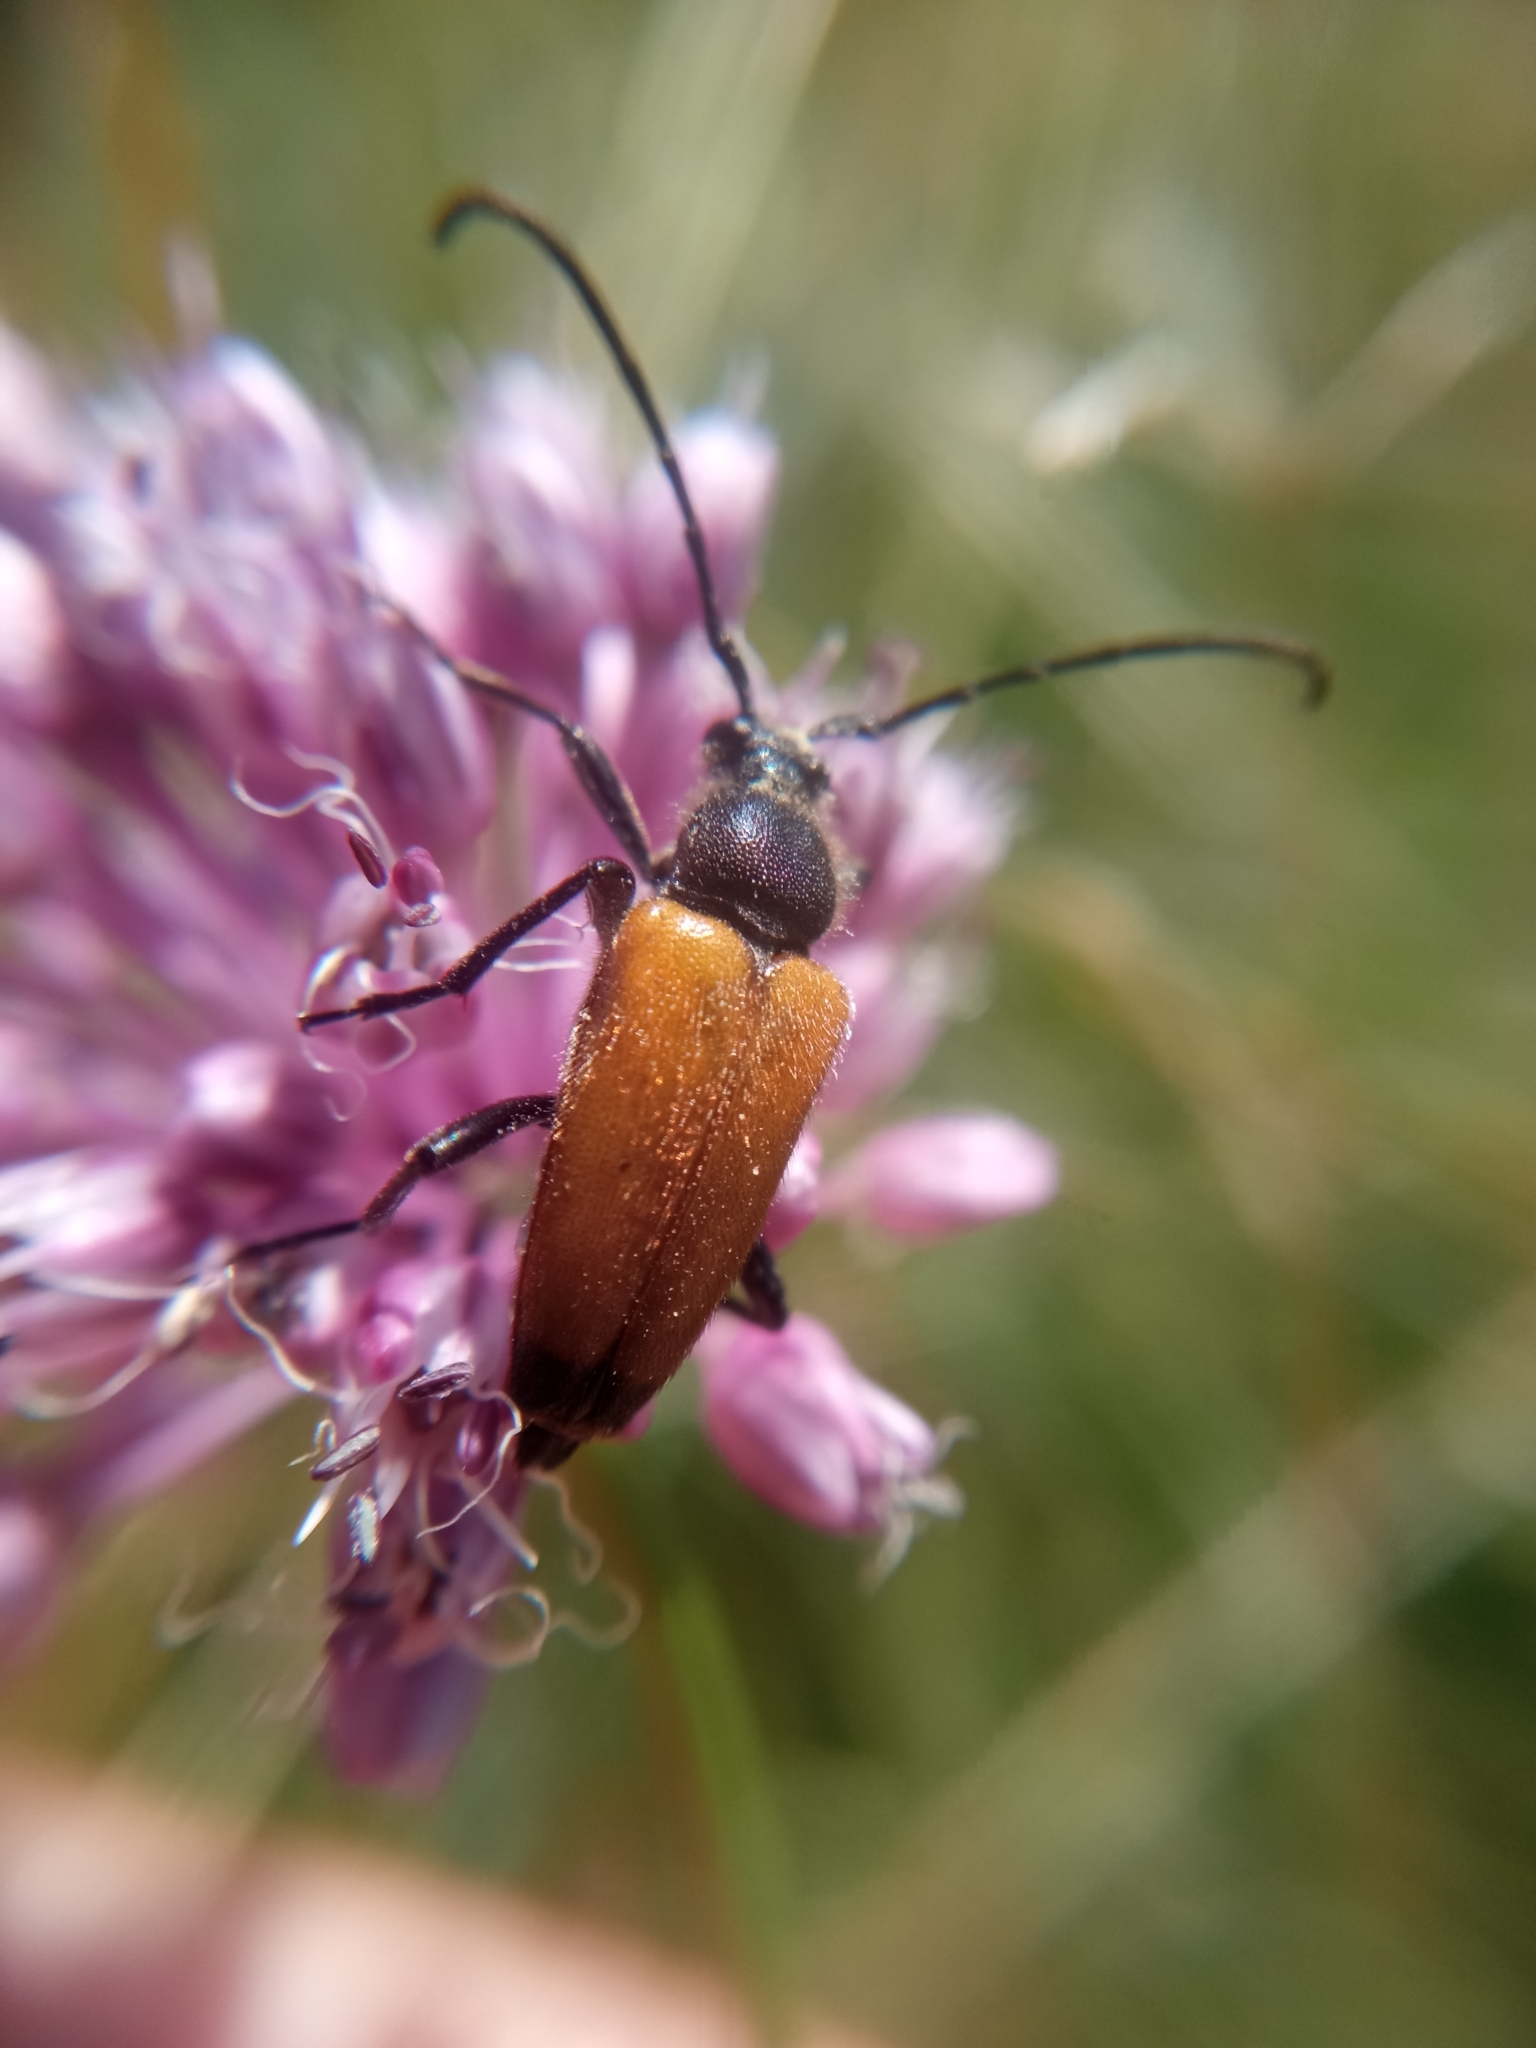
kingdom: Animalia
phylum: Arthropoda
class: Insecta
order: Coleoptera
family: Cerambycidae
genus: Paracorymbia
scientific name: Paracorymbia fulva
